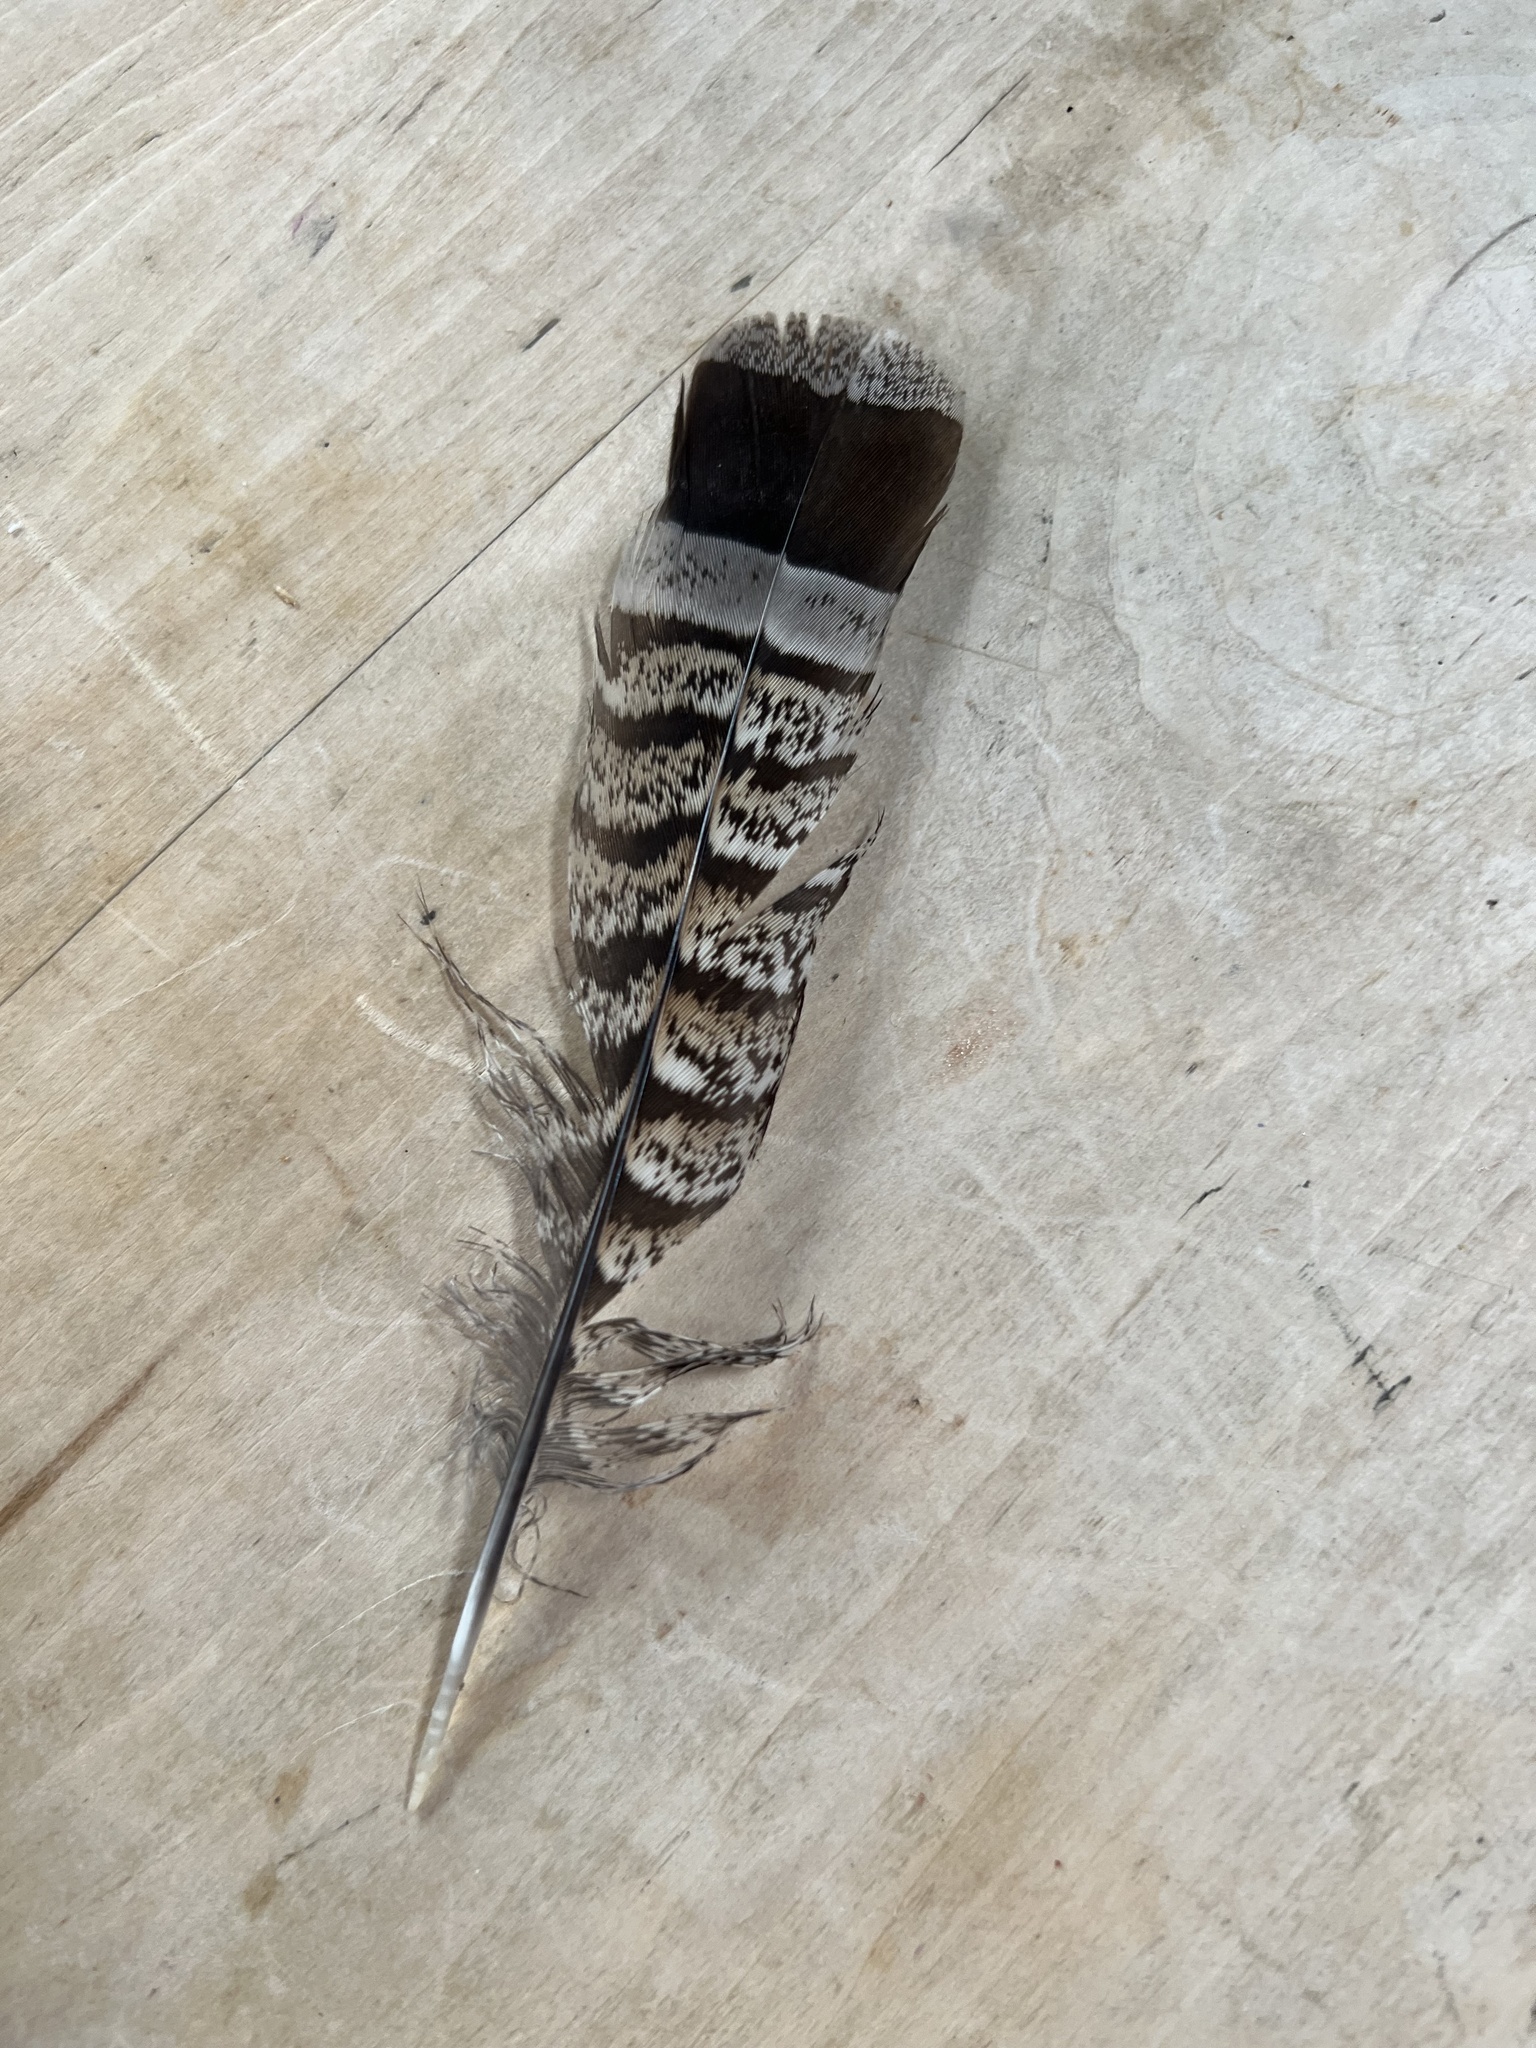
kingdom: Animalia
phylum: Chordata
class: Aves
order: Galliformes
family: Phasianidae
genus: Bonasa
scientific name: Bonasa umbellus
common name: Ruffed grouse
